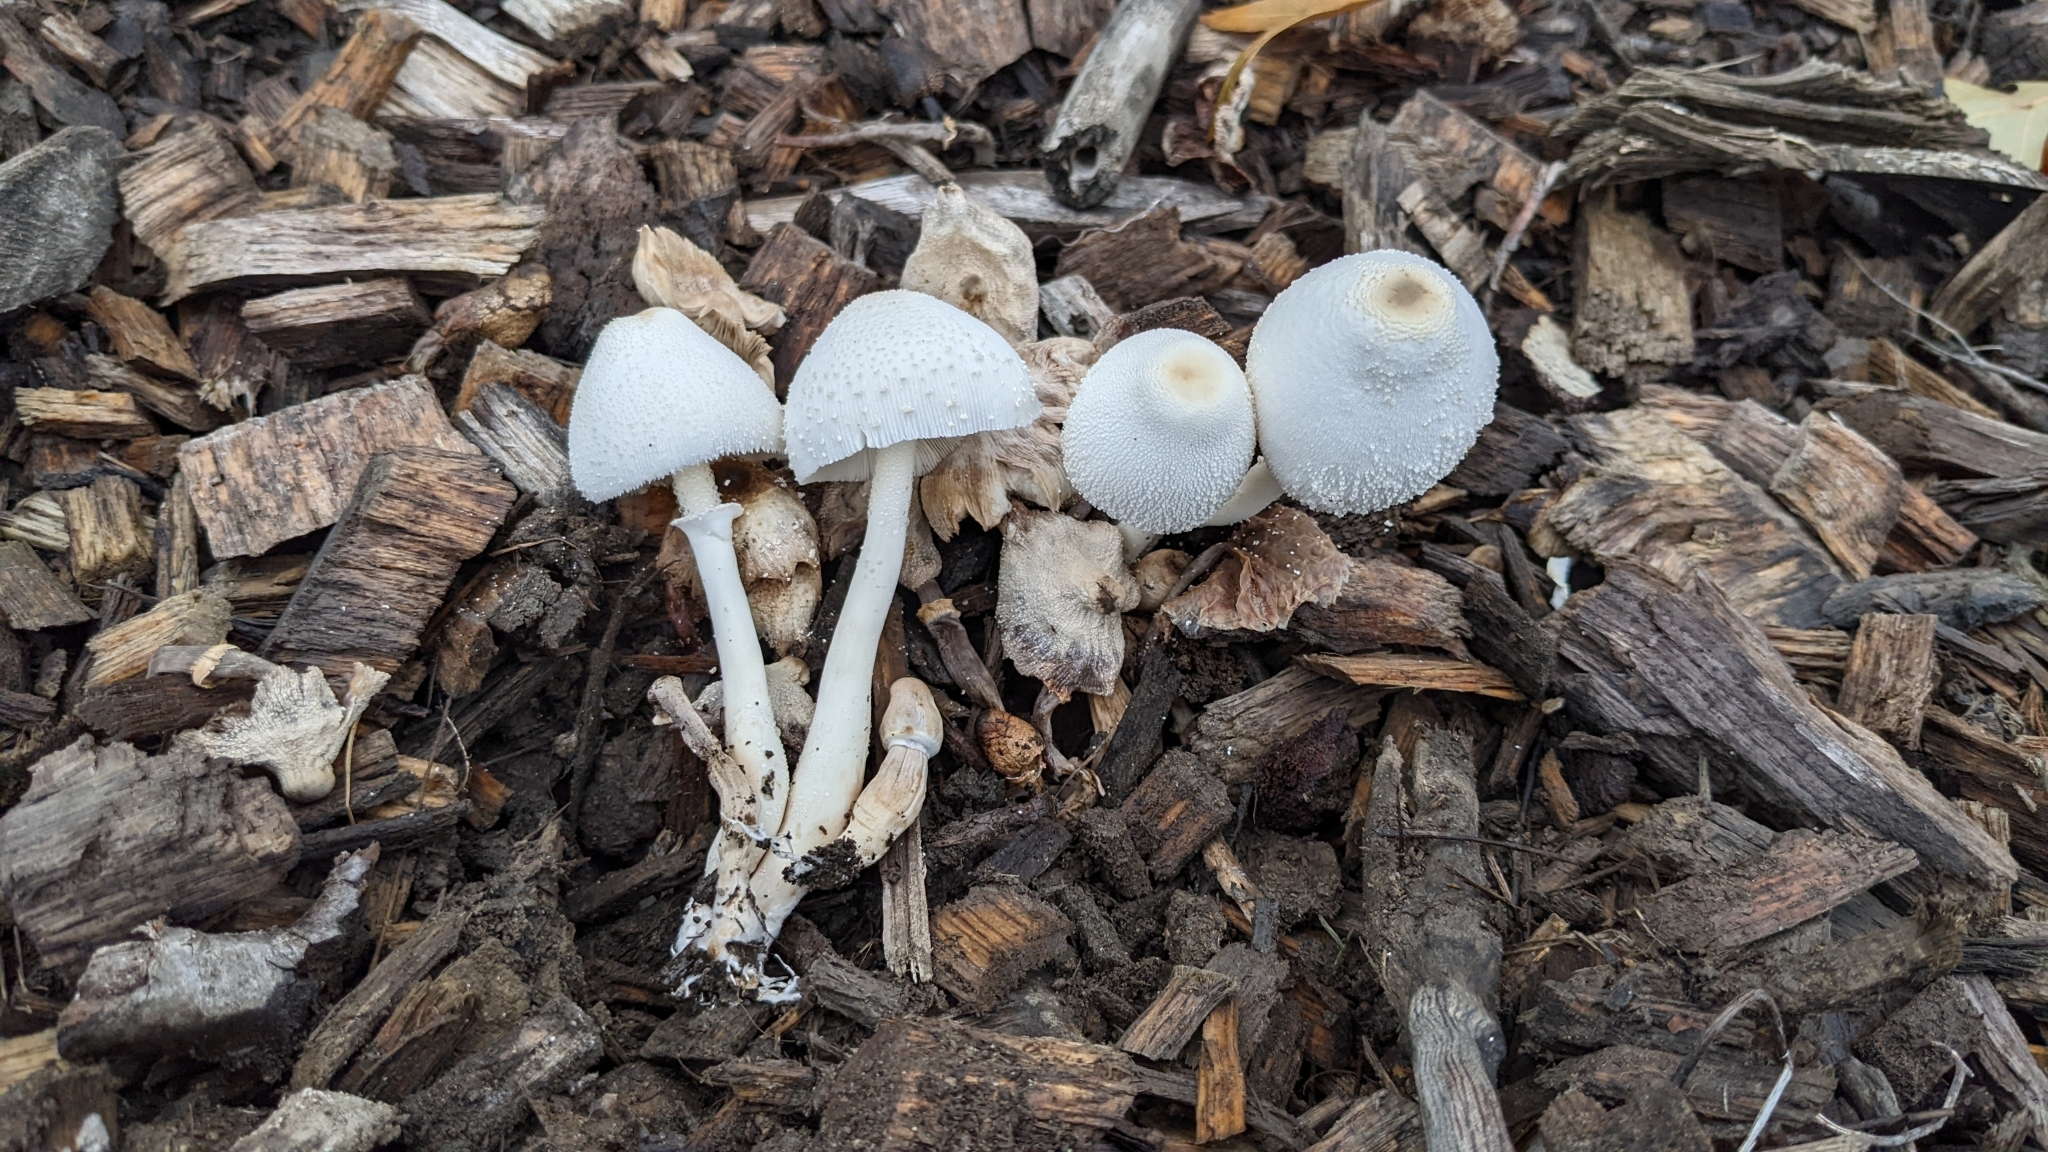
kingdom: Fungi
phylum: Basidiomycota
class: Agaricomycetes
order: Agaricales
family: Agaricaceae
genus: Leucocoprinus
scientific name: Leucocoprinus cepistipes
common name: Onion-stalk parasol
